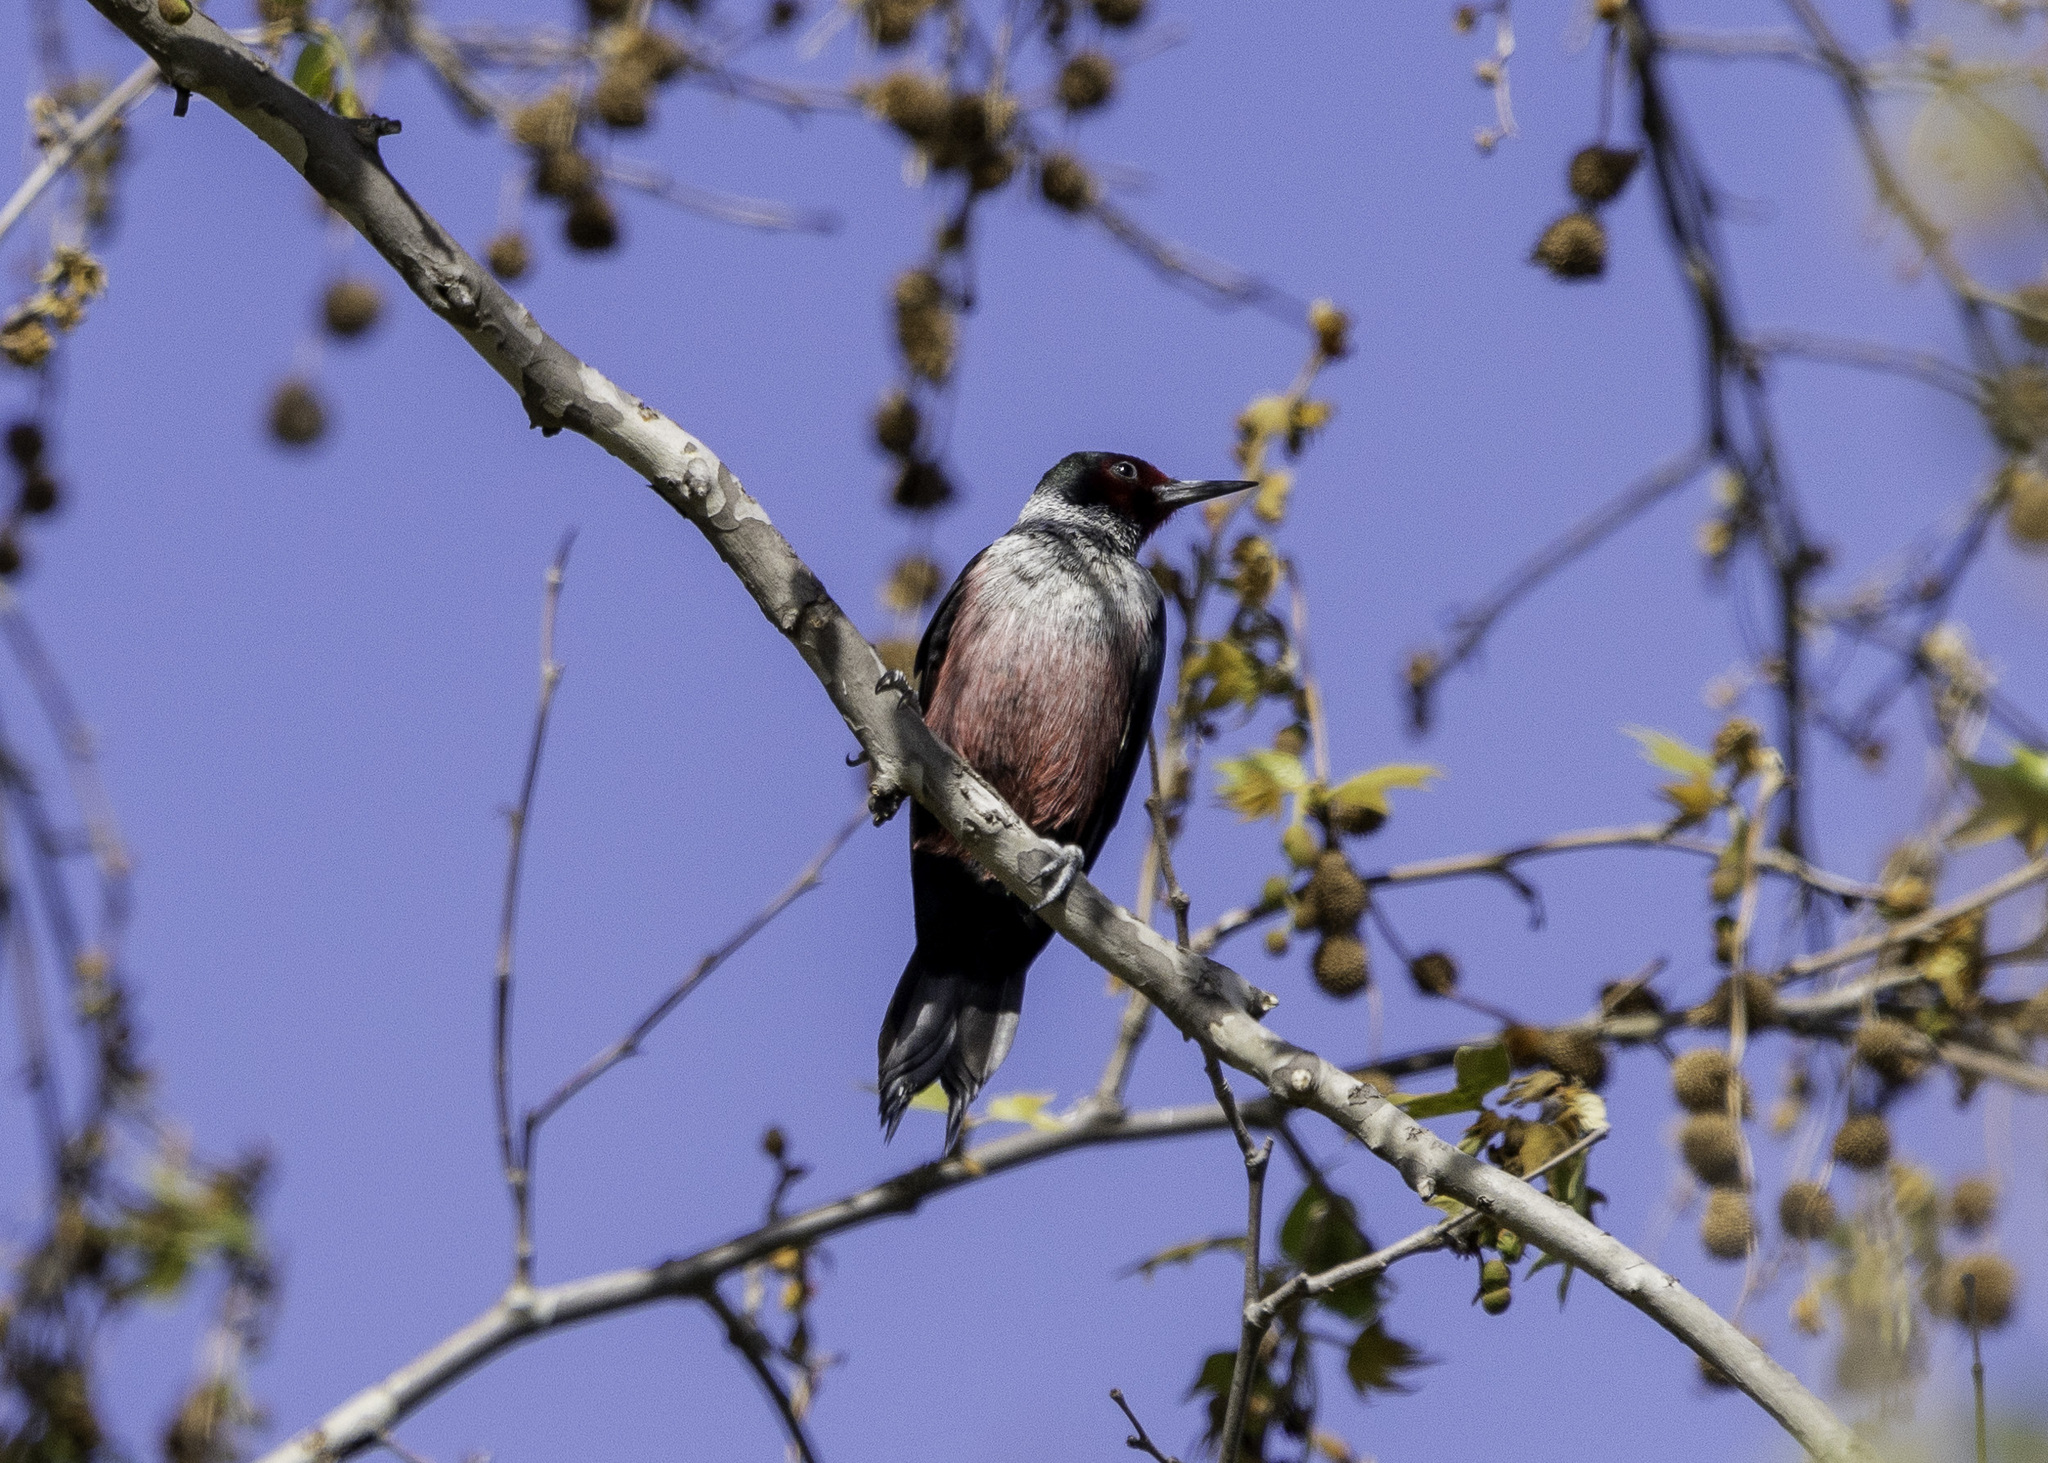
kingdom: Animalia
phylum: Chordata
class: Aves
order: Piciformes
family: Picidae
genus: Melanerpes
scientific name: Melanerpes lewis
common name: Lewis's woodpecker
